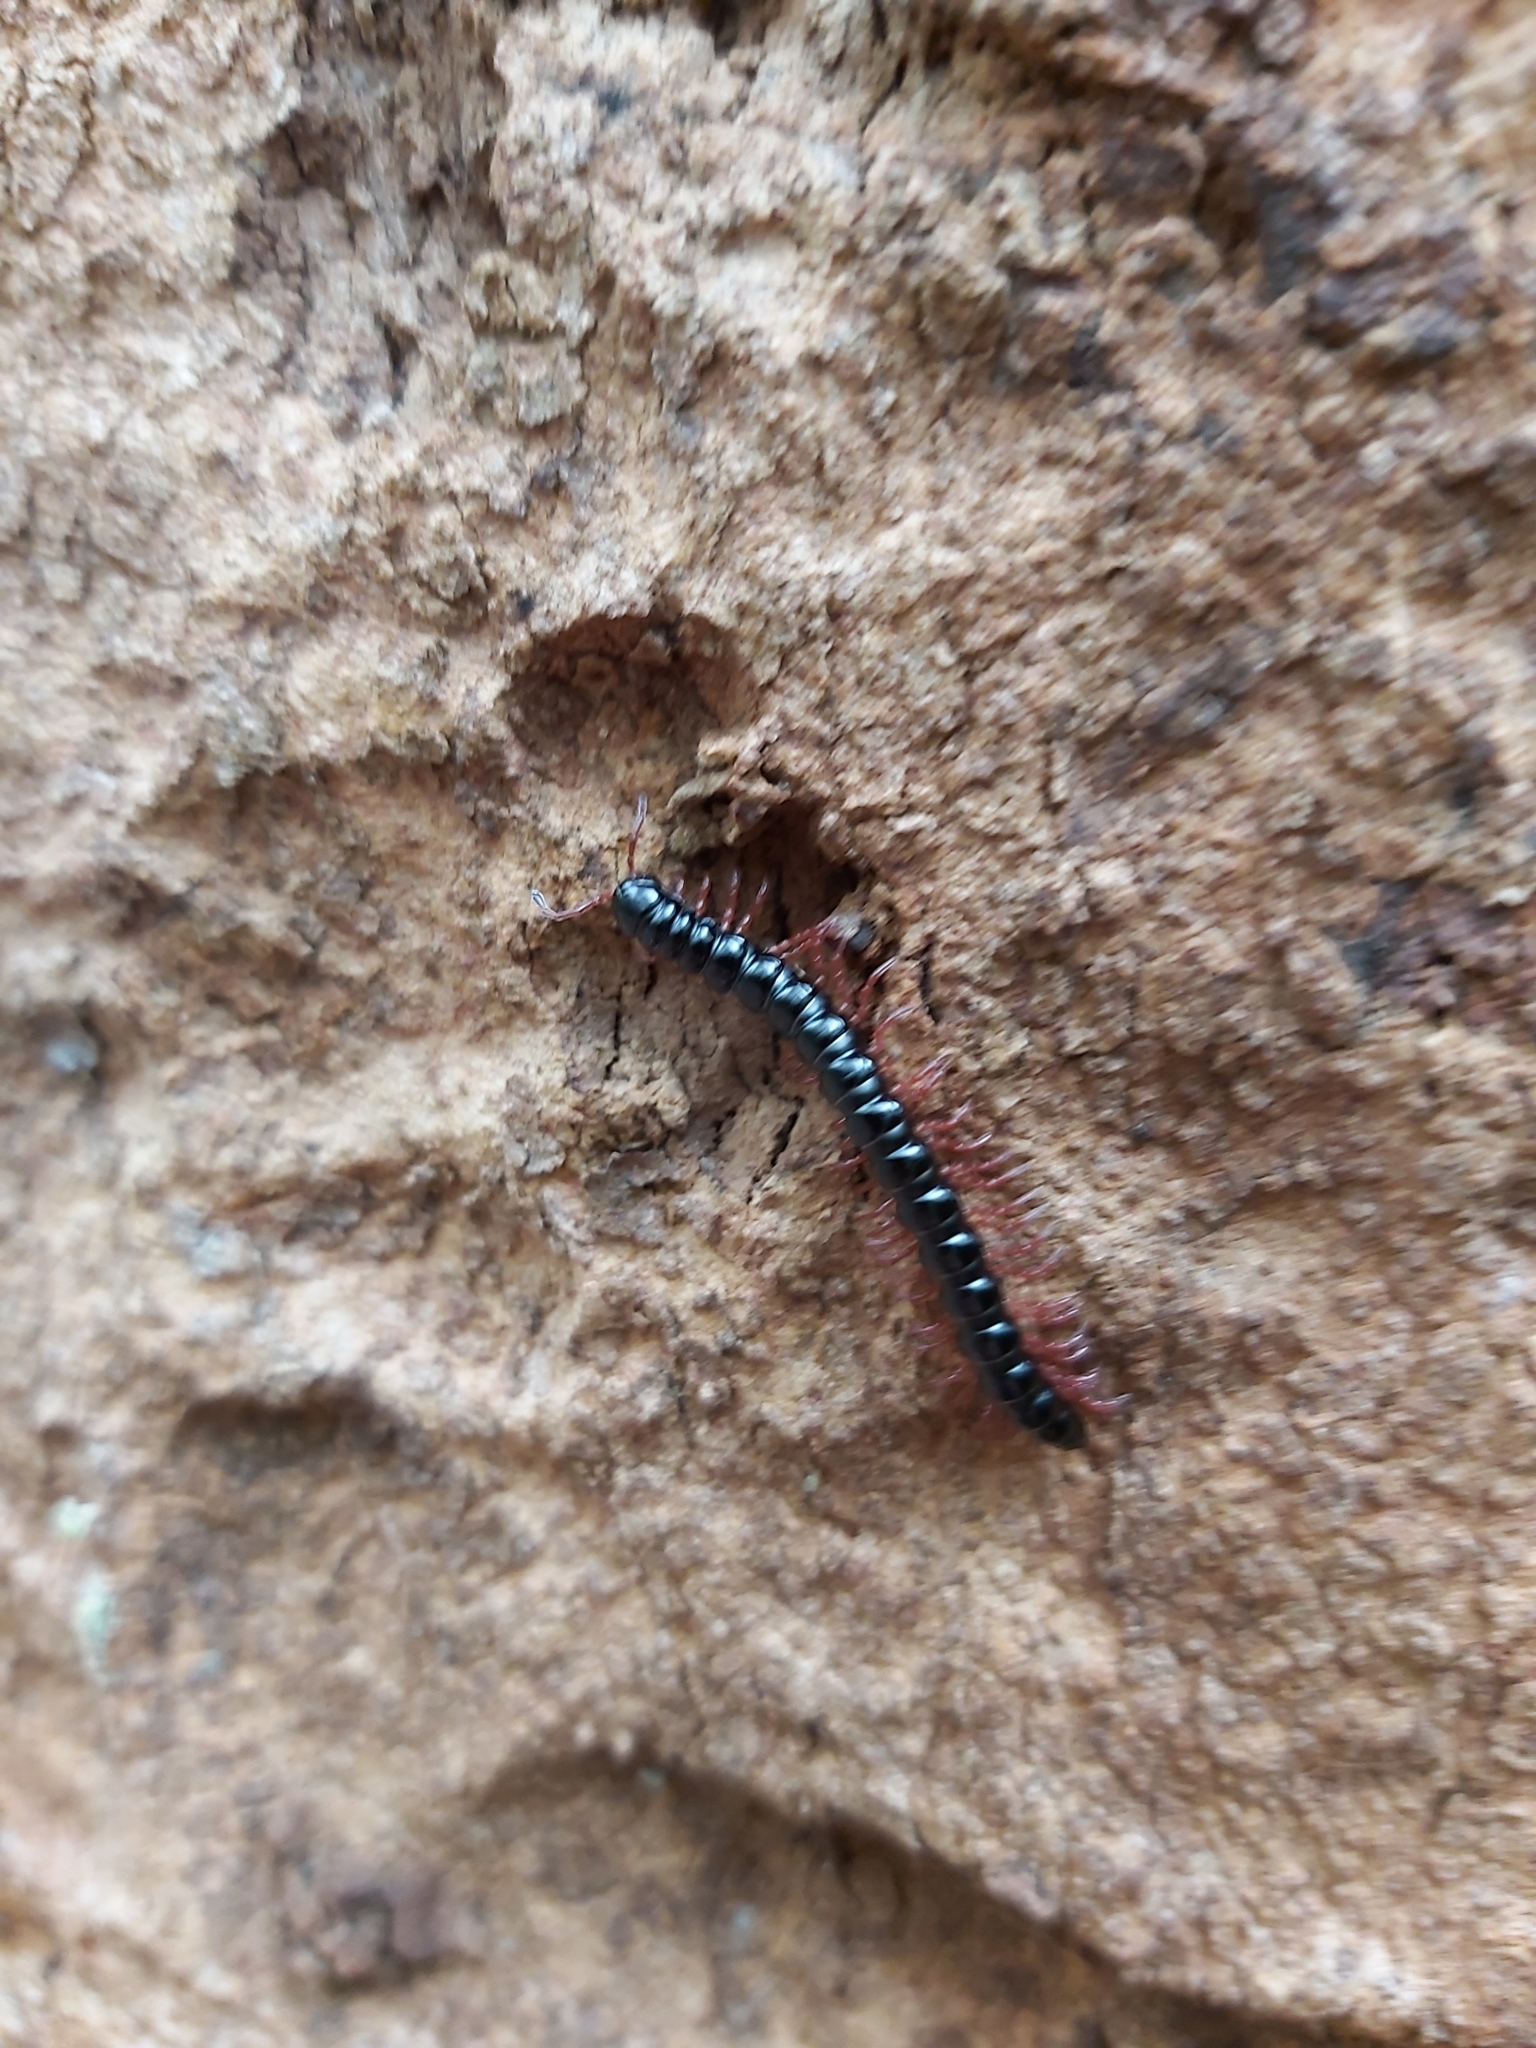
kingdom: Animalia
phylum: Arthropoda
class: Diplopoda
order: Polydesmida
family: Paradoxosomatidae
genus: Heterocladosoma
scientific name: Heterocladosoma
